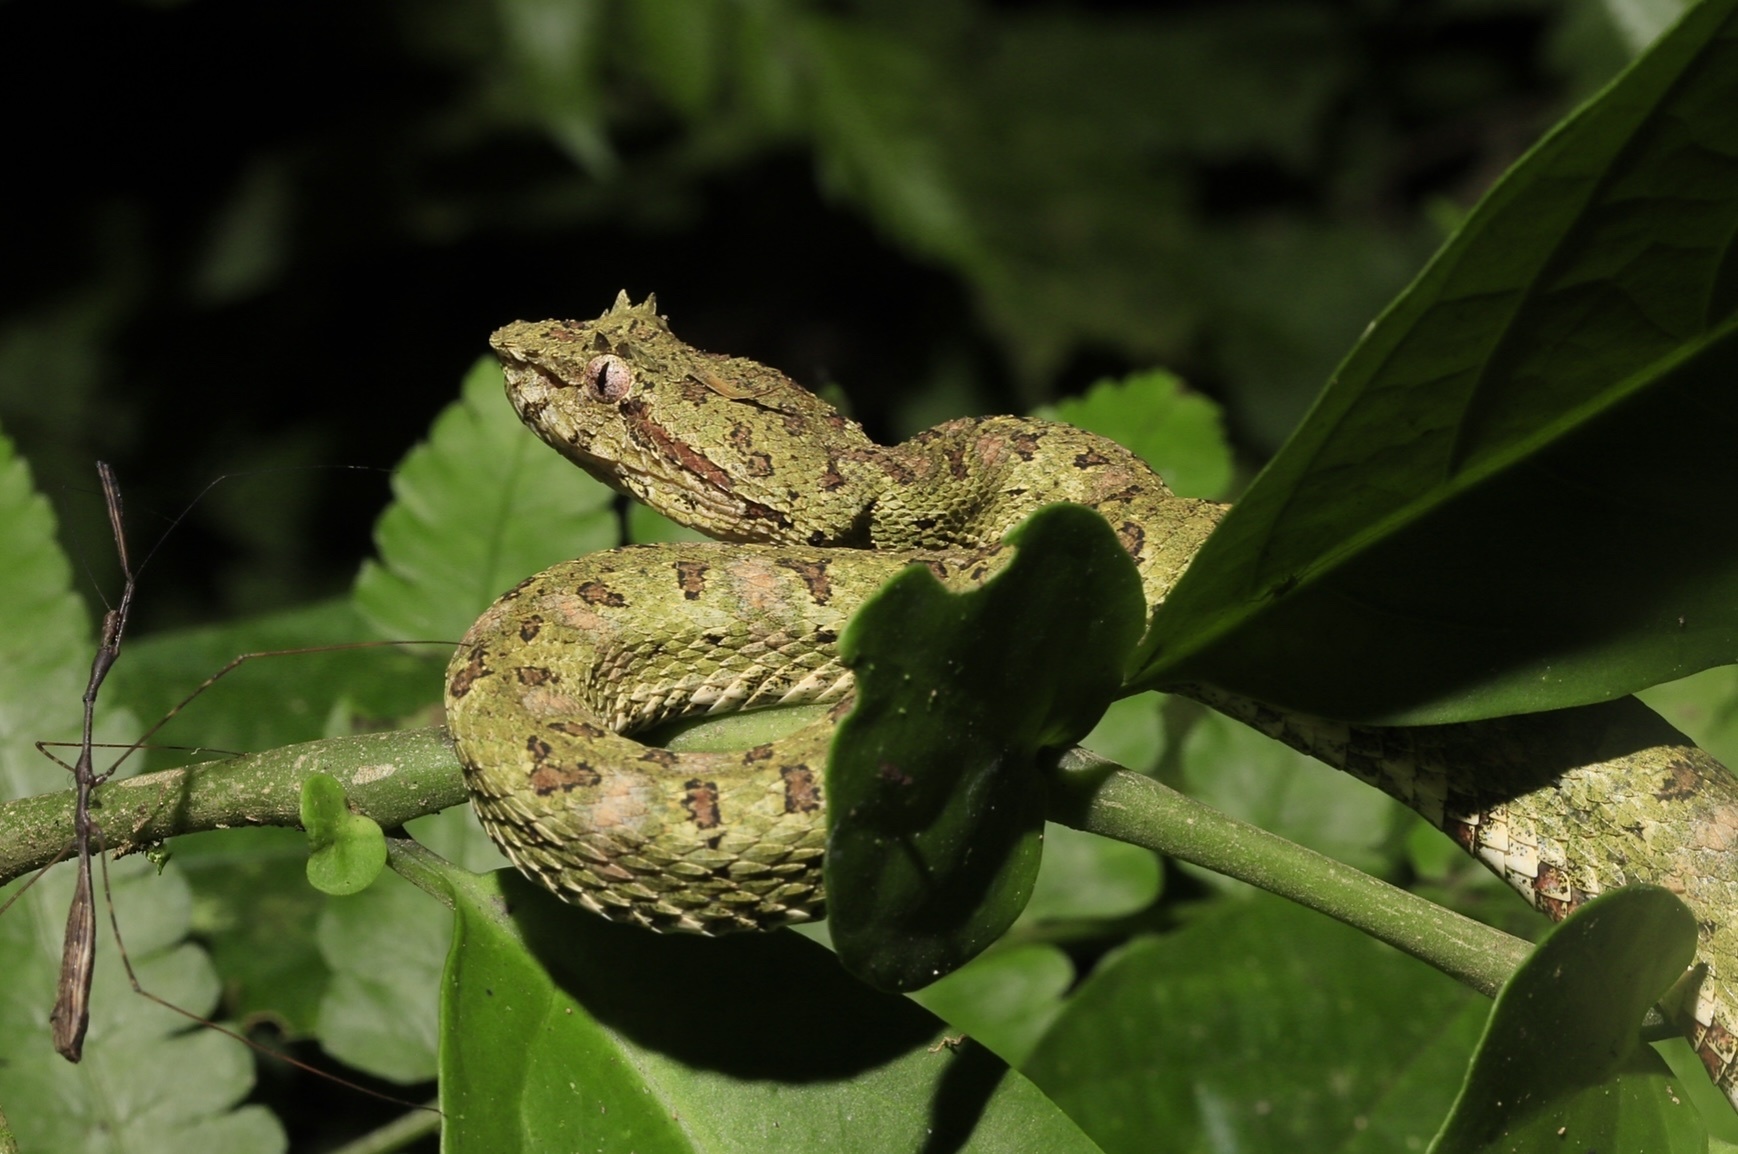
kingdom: Animalia
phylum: Chordata
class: Squamata
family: Viperidae
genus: Bothriechis
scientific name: Bothriechis schlegelii
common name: Eyelash viper
